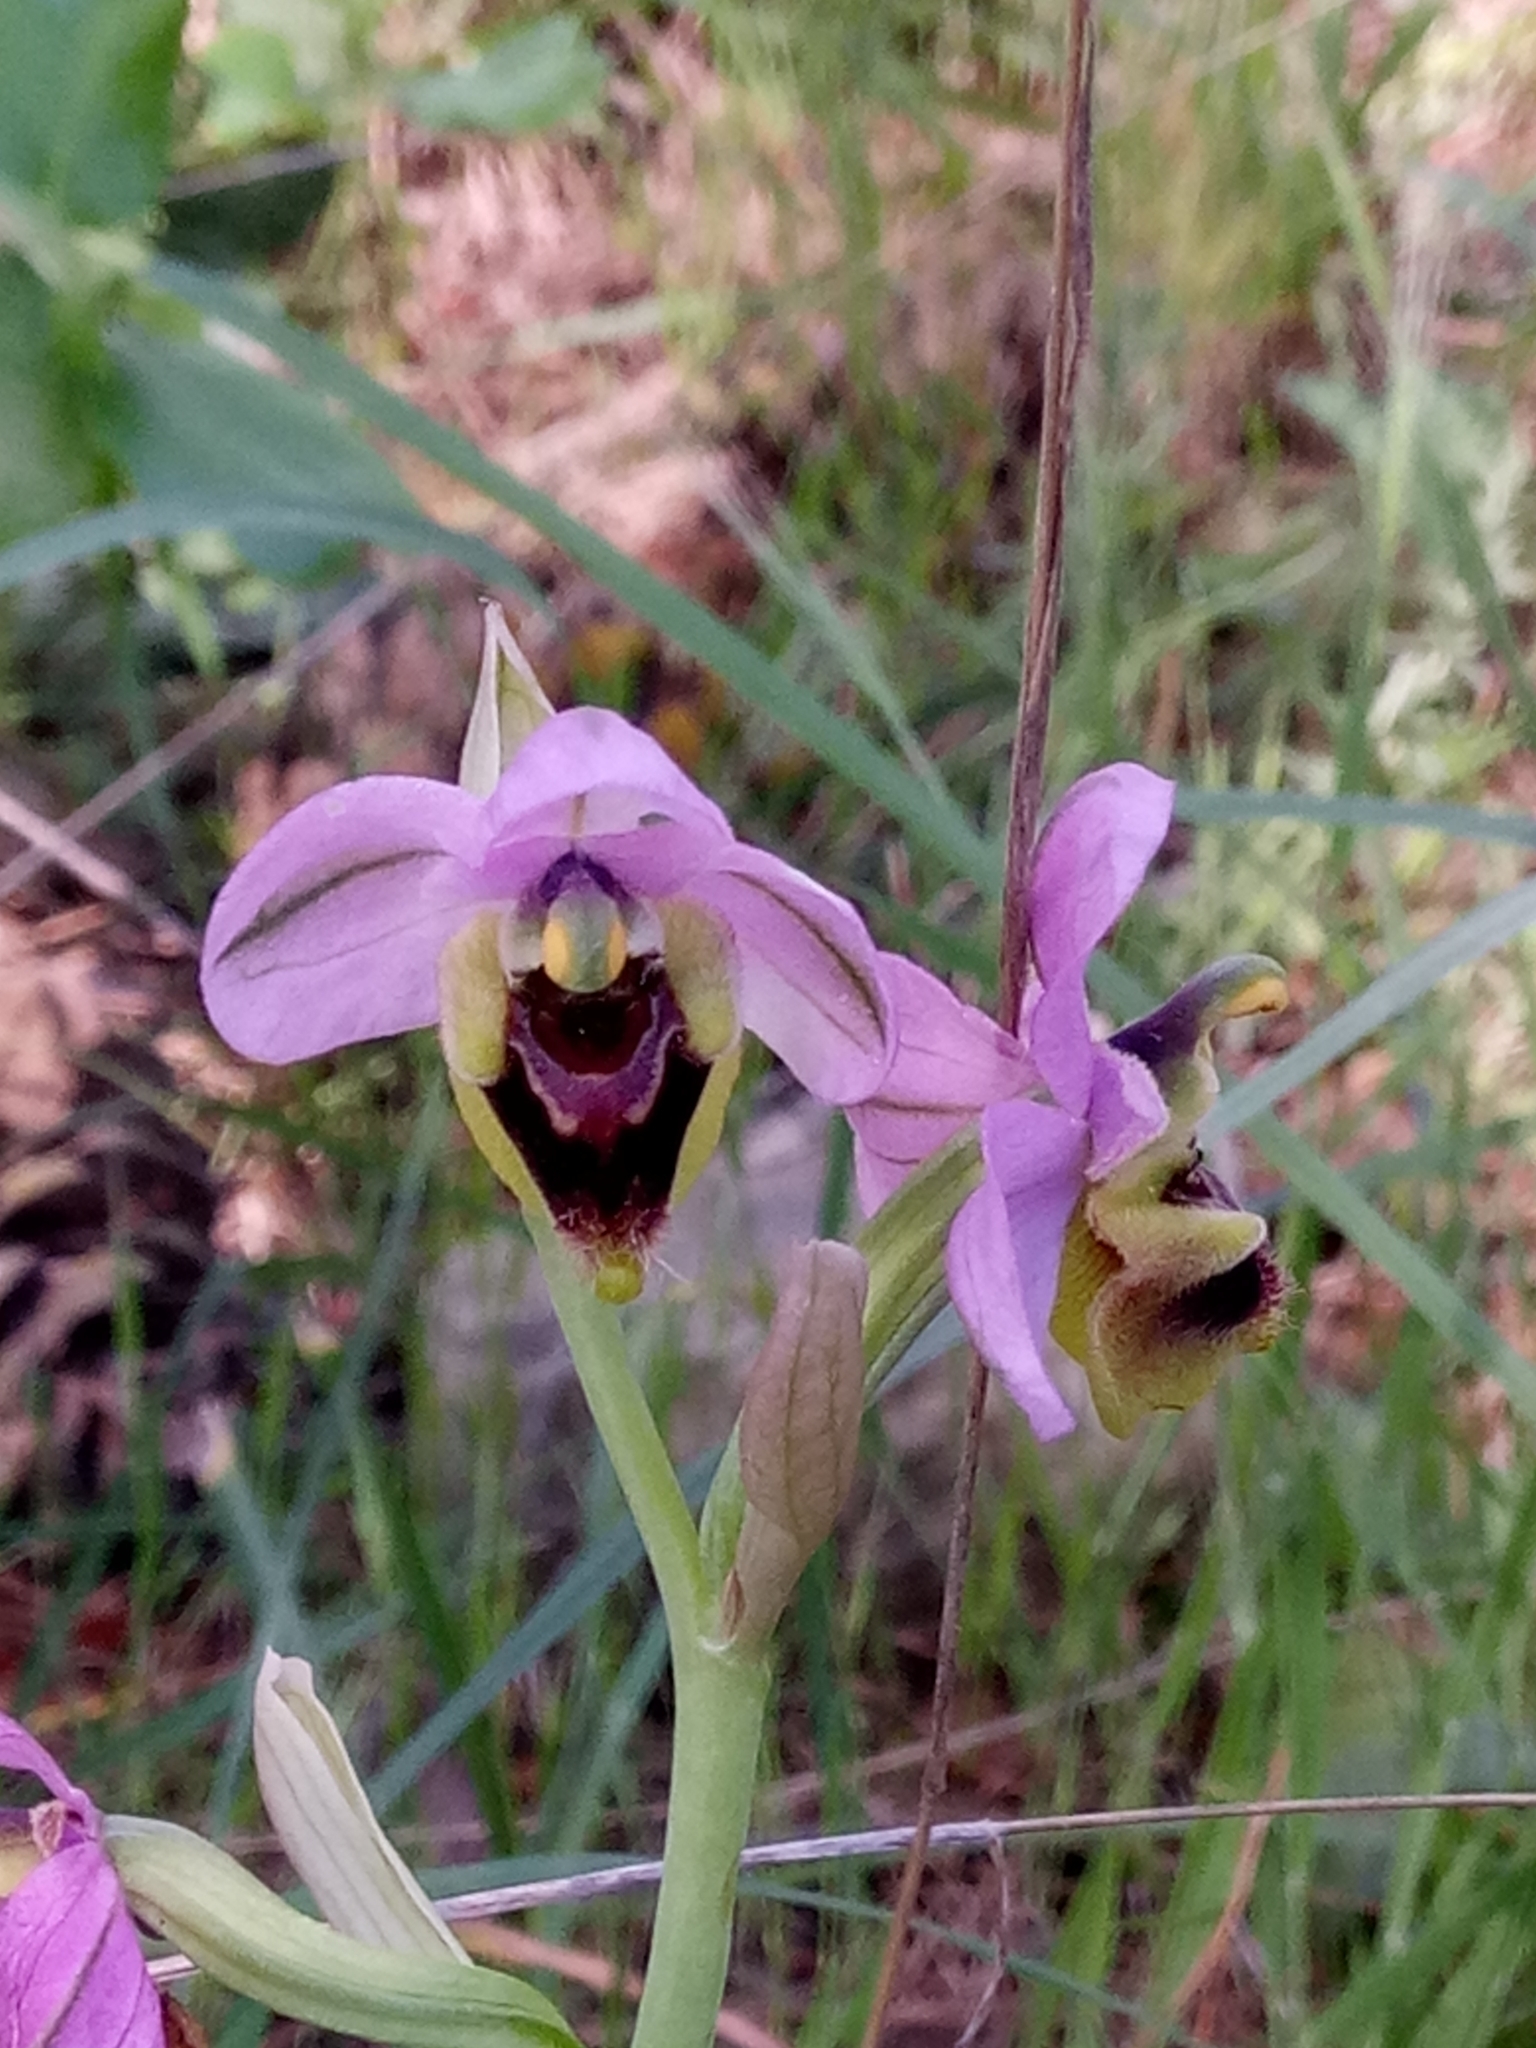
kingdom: Plantae
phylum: Tracheophyta
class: Liliopsida
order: Asparagales
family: Orchidaceae
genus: Ophrys
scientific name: Ophrys tenthredinifera
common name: Sawfly orchid
